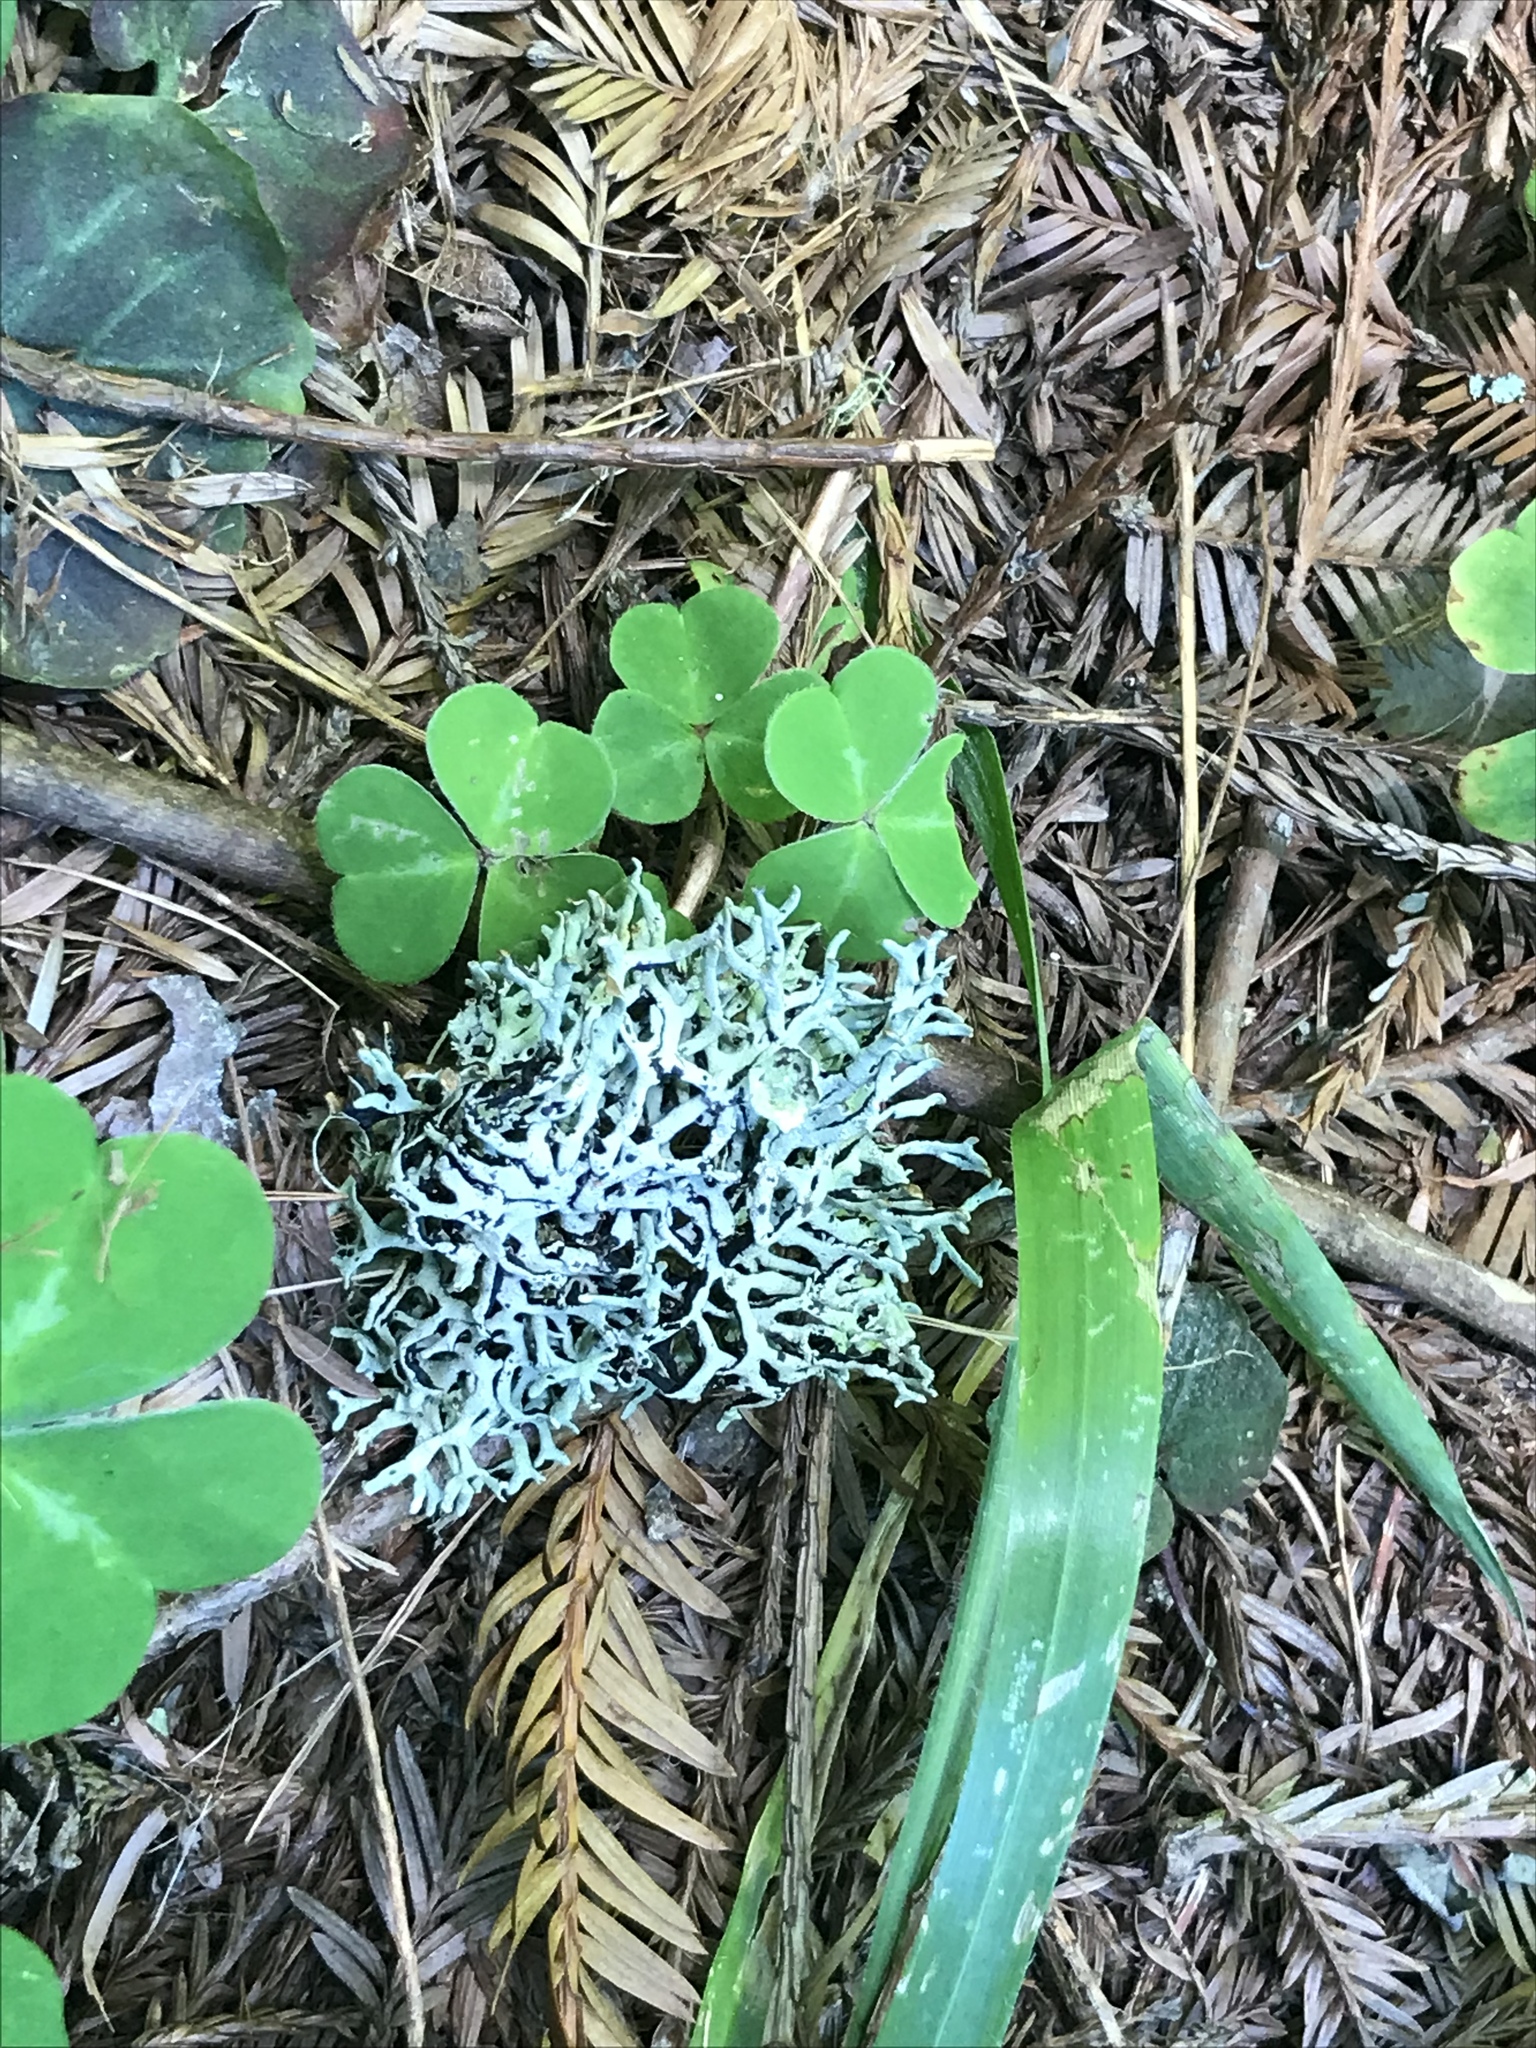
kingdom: Fungi
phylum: Ascomycota
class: Lecanoromycetes
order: Lecanorales
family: Parmeliaceae
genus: Hypogymnia
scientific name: Hypogymnia
